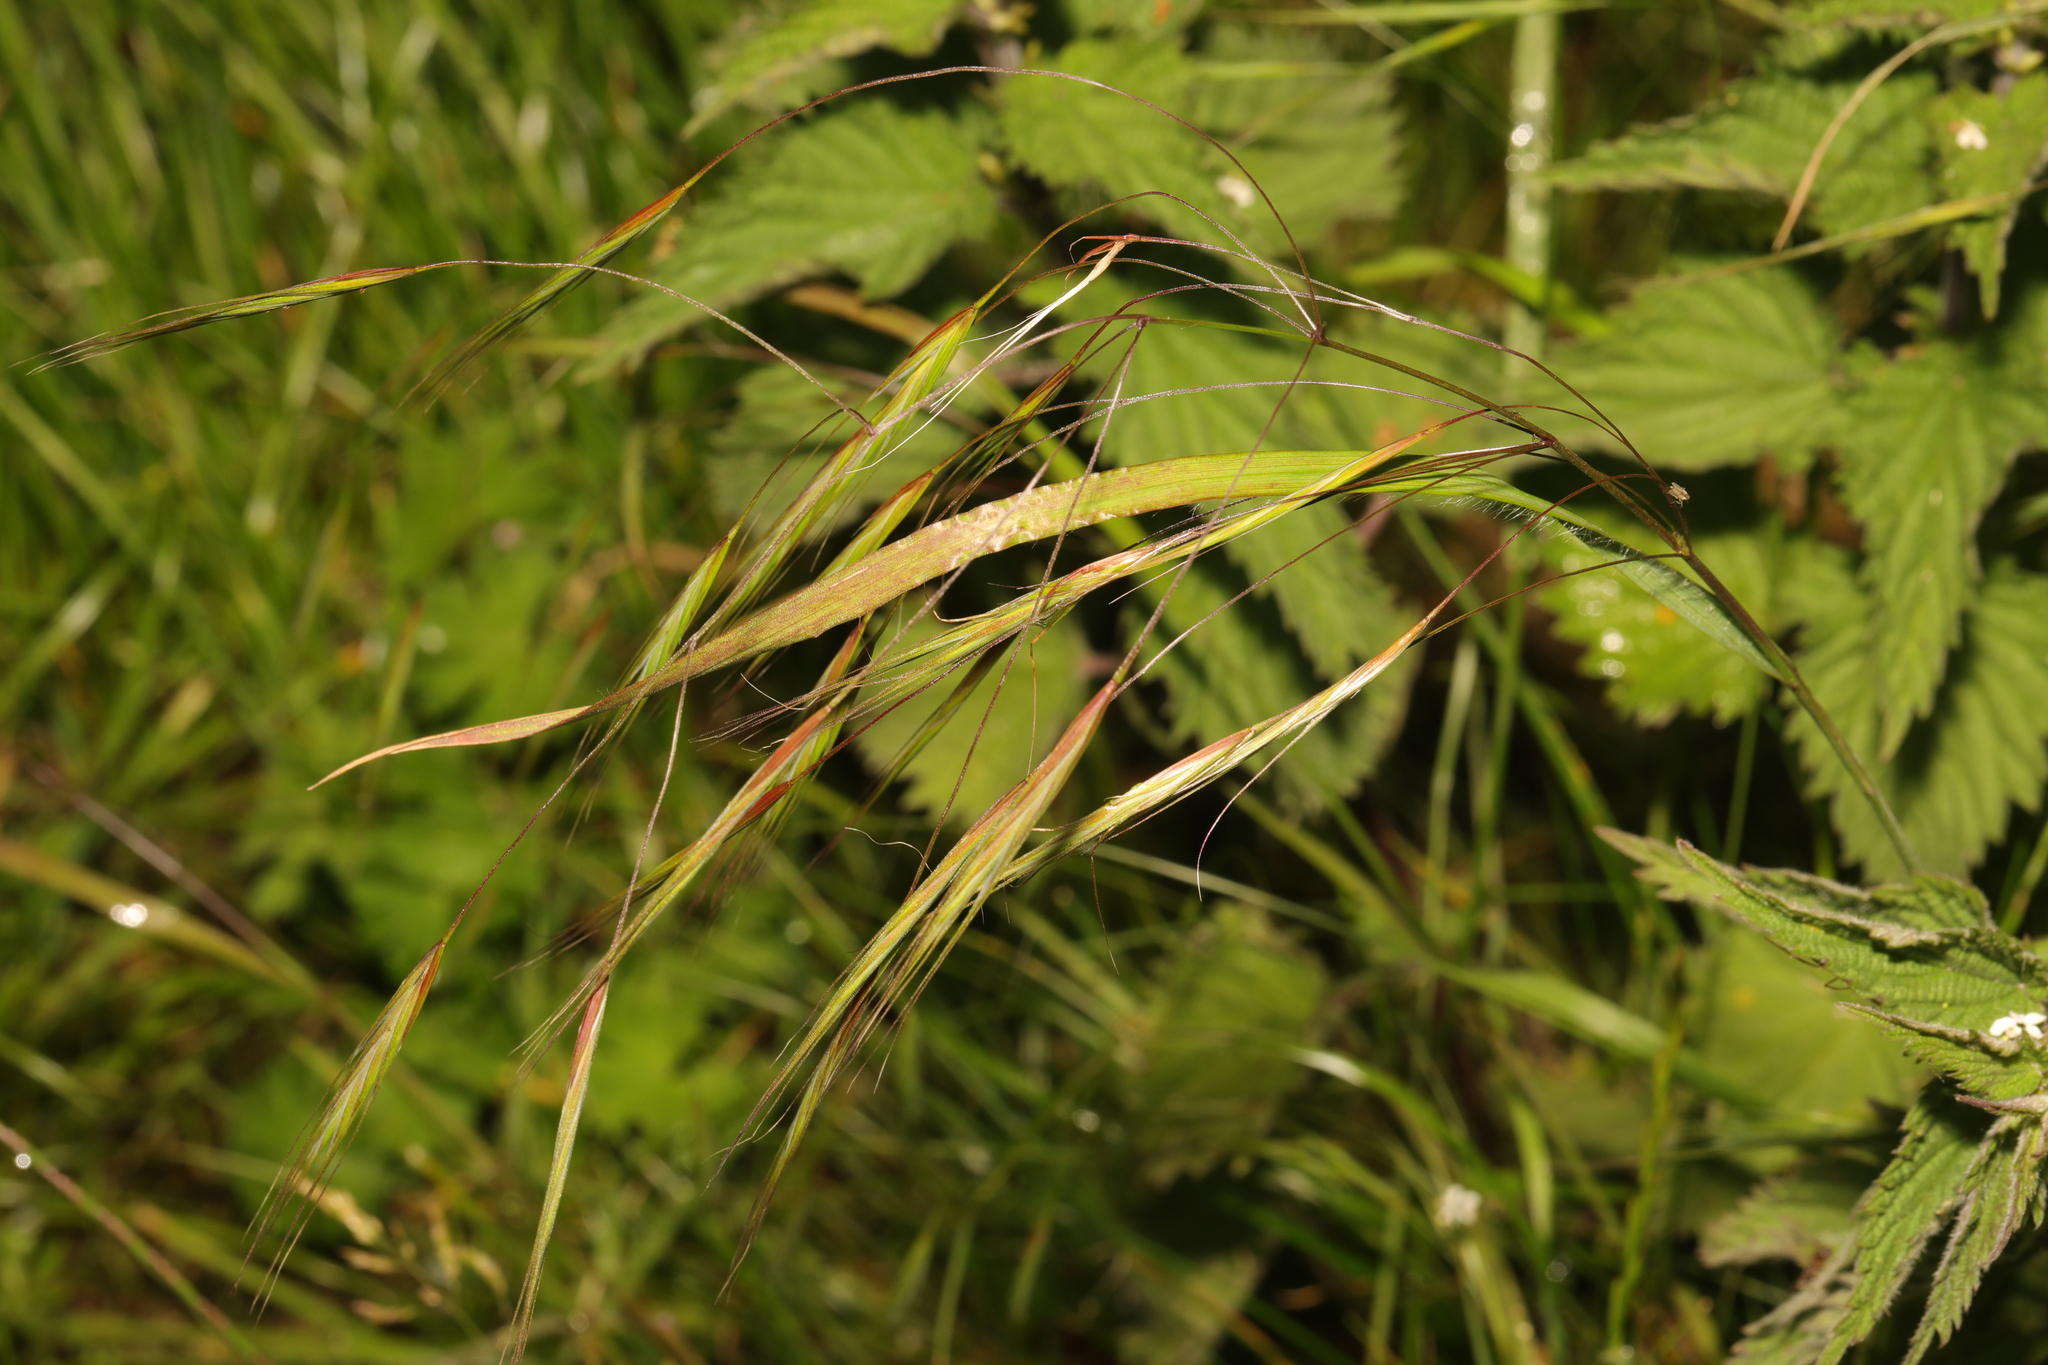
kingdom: Plantae
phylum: Tracheophyta
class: Liliopsida
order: Poales
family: Poaceae
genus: Bromus
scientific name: Bromus sterilis
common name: Poverty brome
